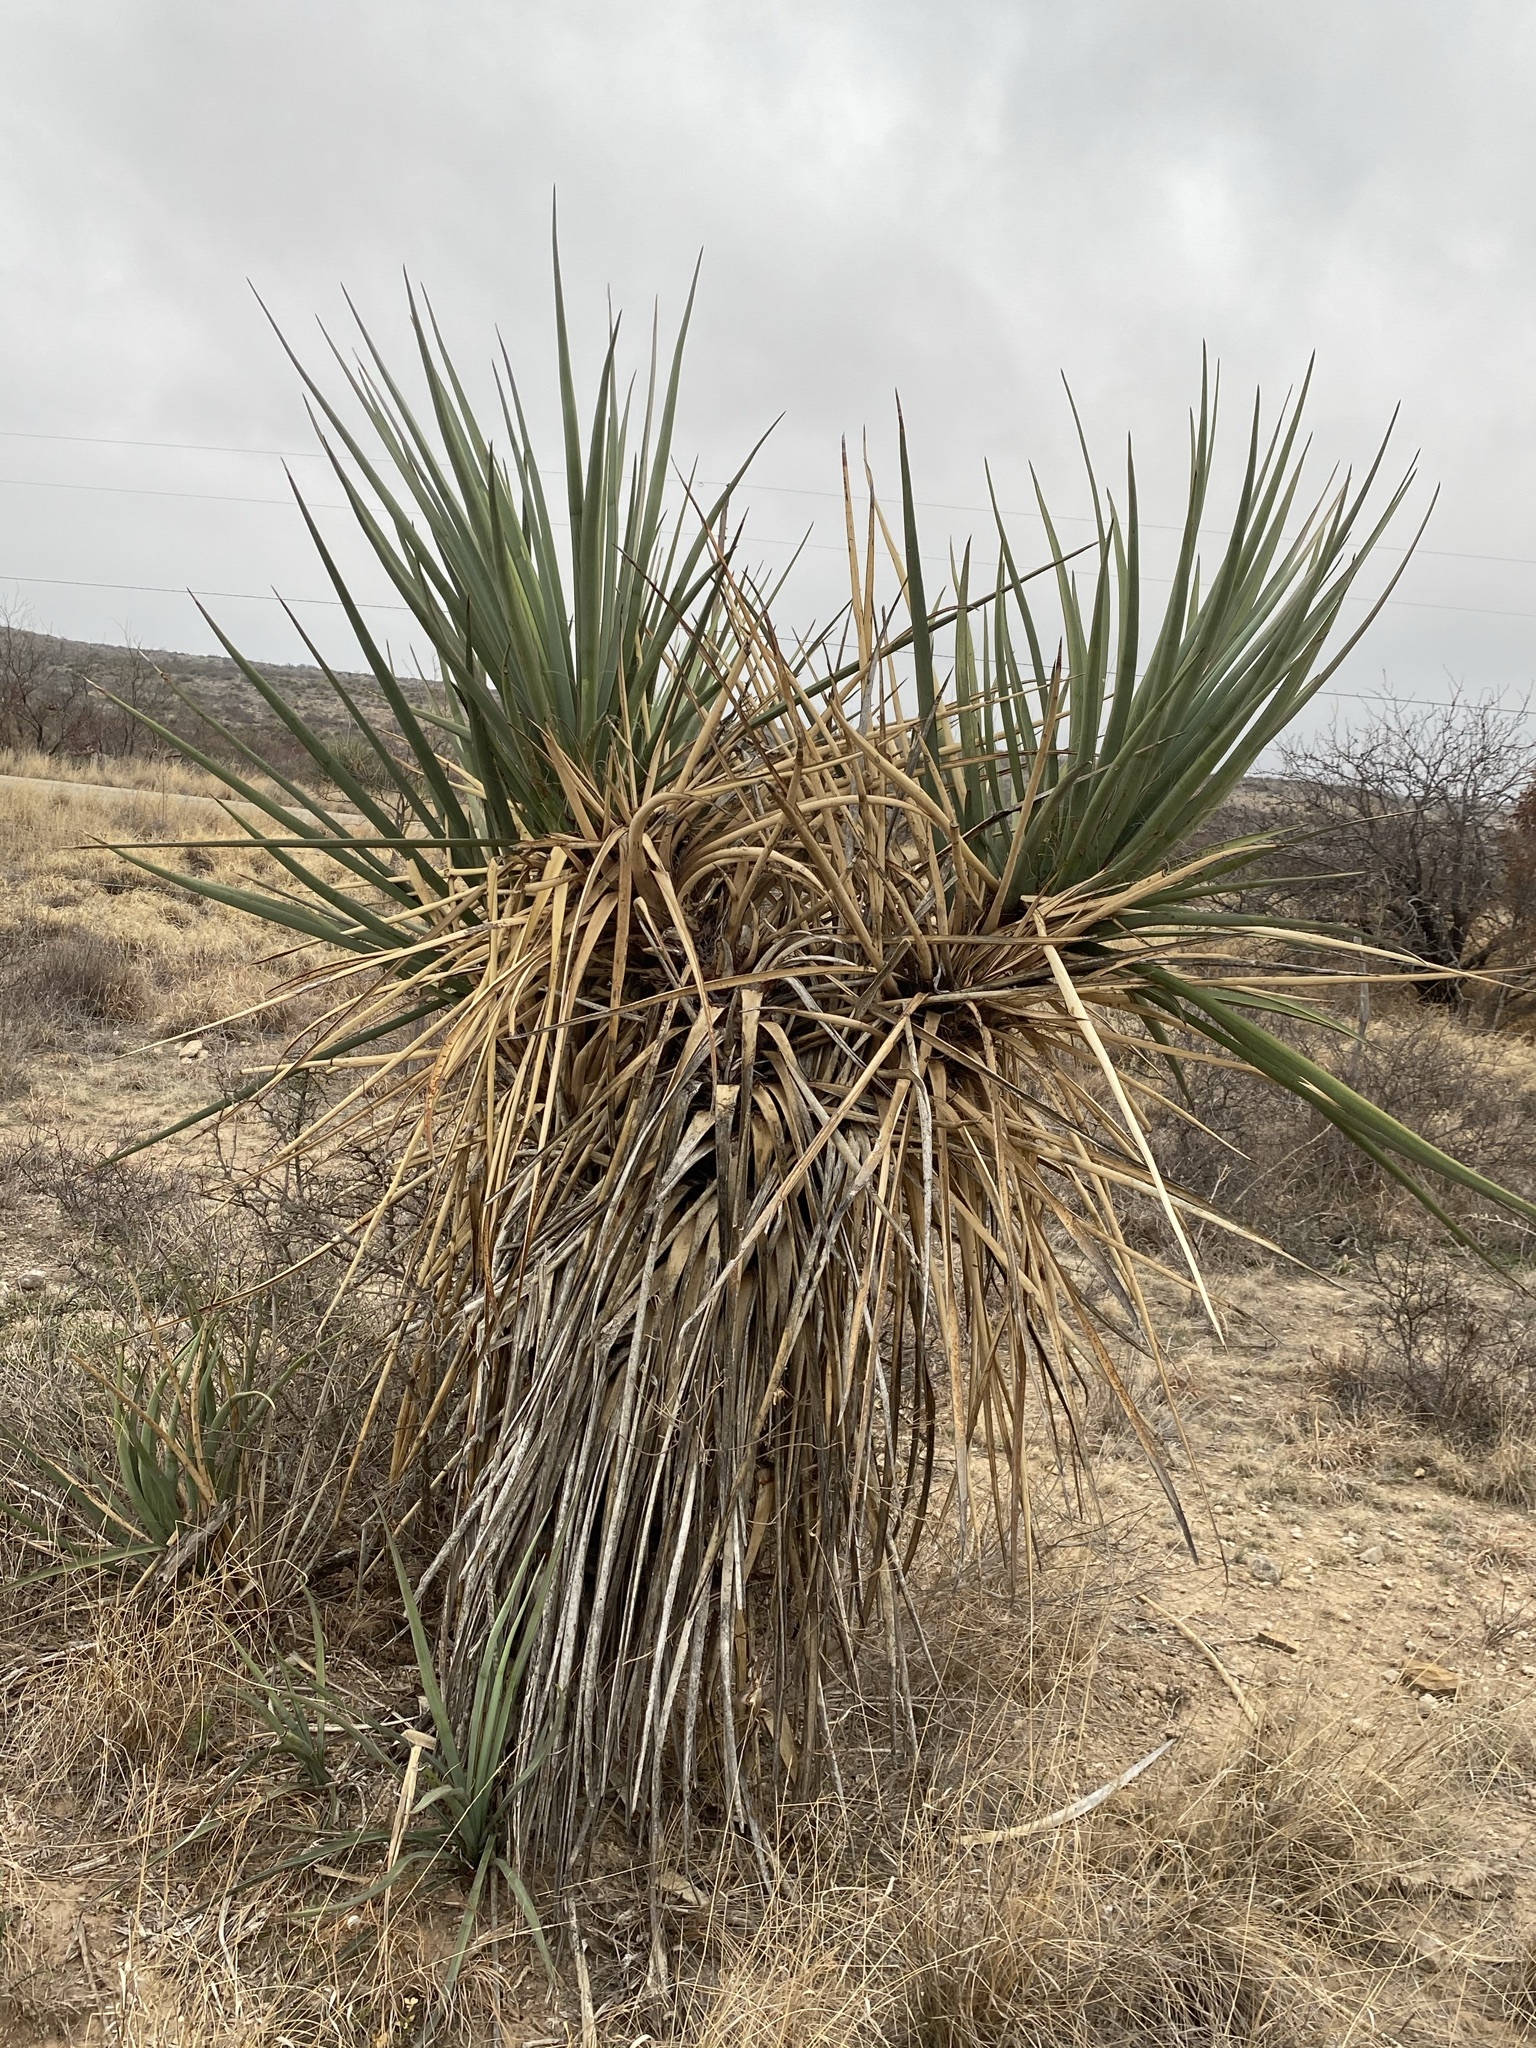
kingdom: Plantae
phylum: Tracheophyta
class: Liliopsida
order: Asparagales
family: Asparagaceae
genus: Yucca
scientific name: Yucca treculiana
